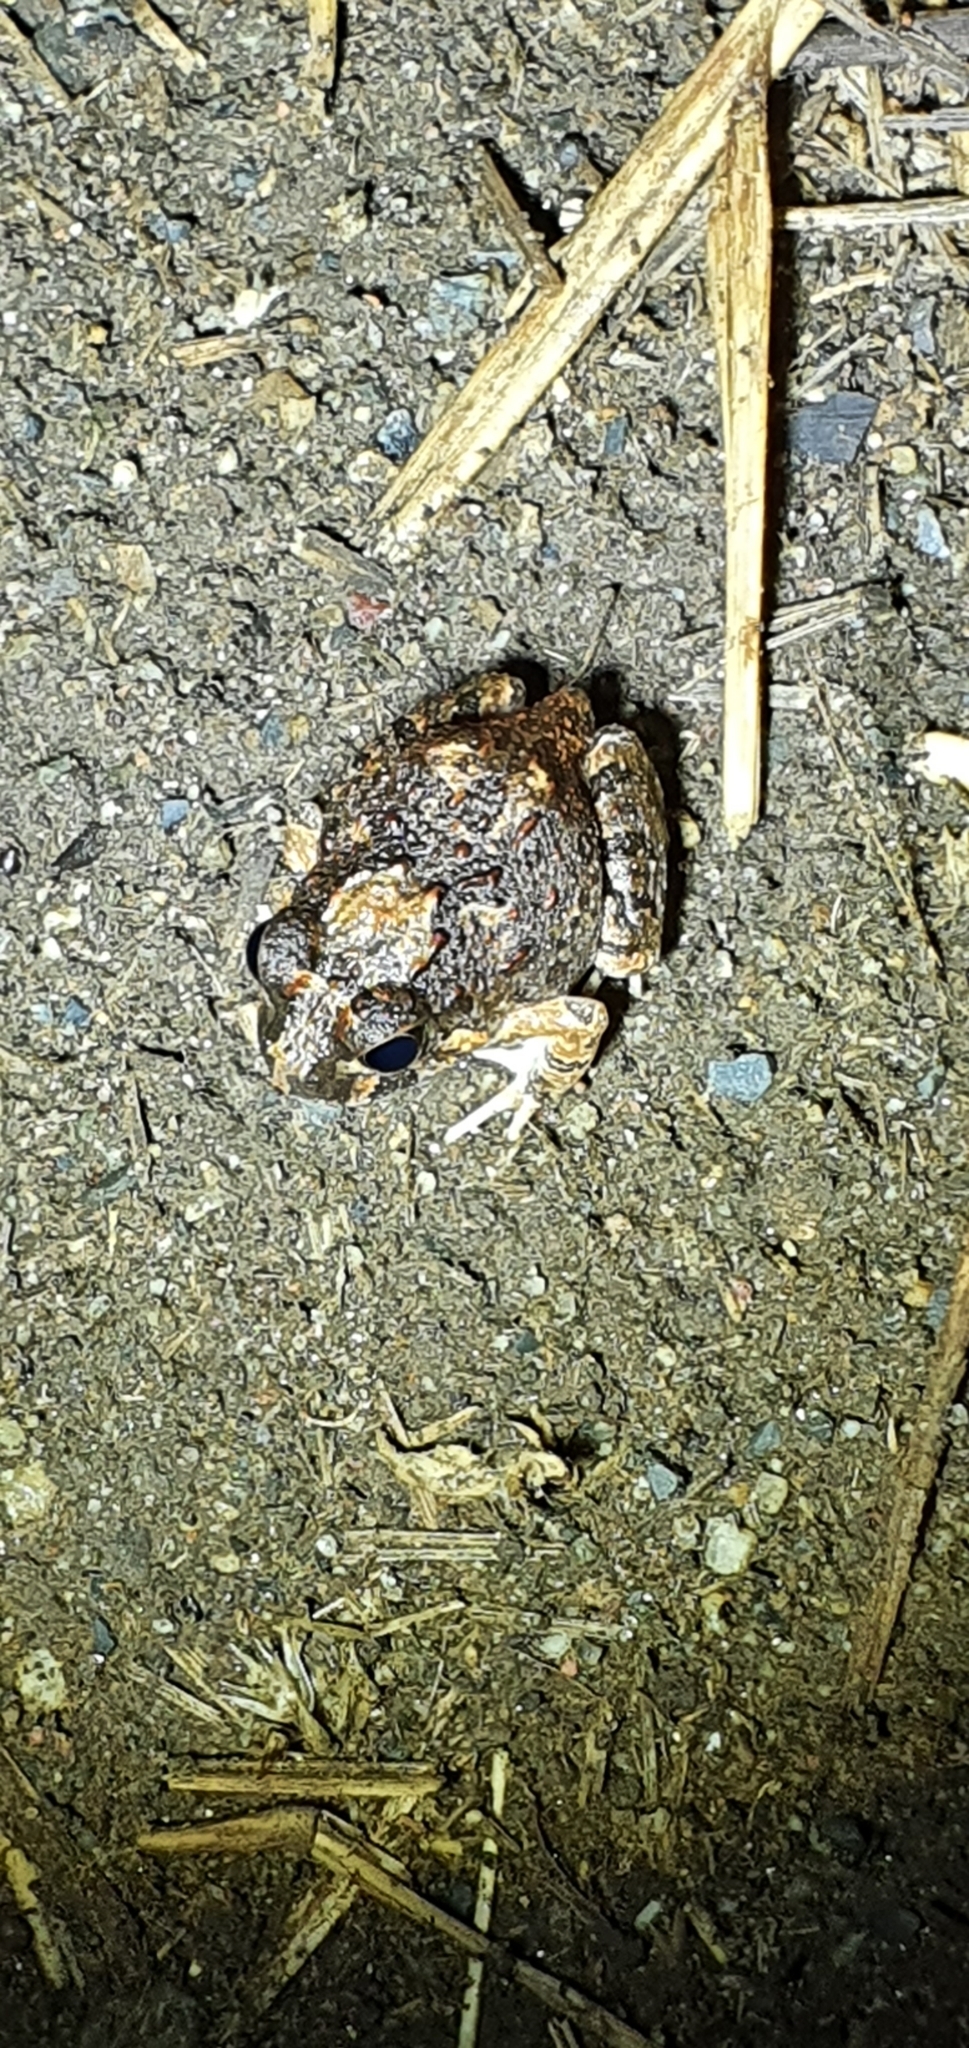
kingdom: Animalia
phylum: Chordata
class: Amphibia
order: Anura
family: Limnodynastidae
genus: Platyplectrum
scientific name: Platyplectrum ornatum
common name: Ornate burrowing frog
